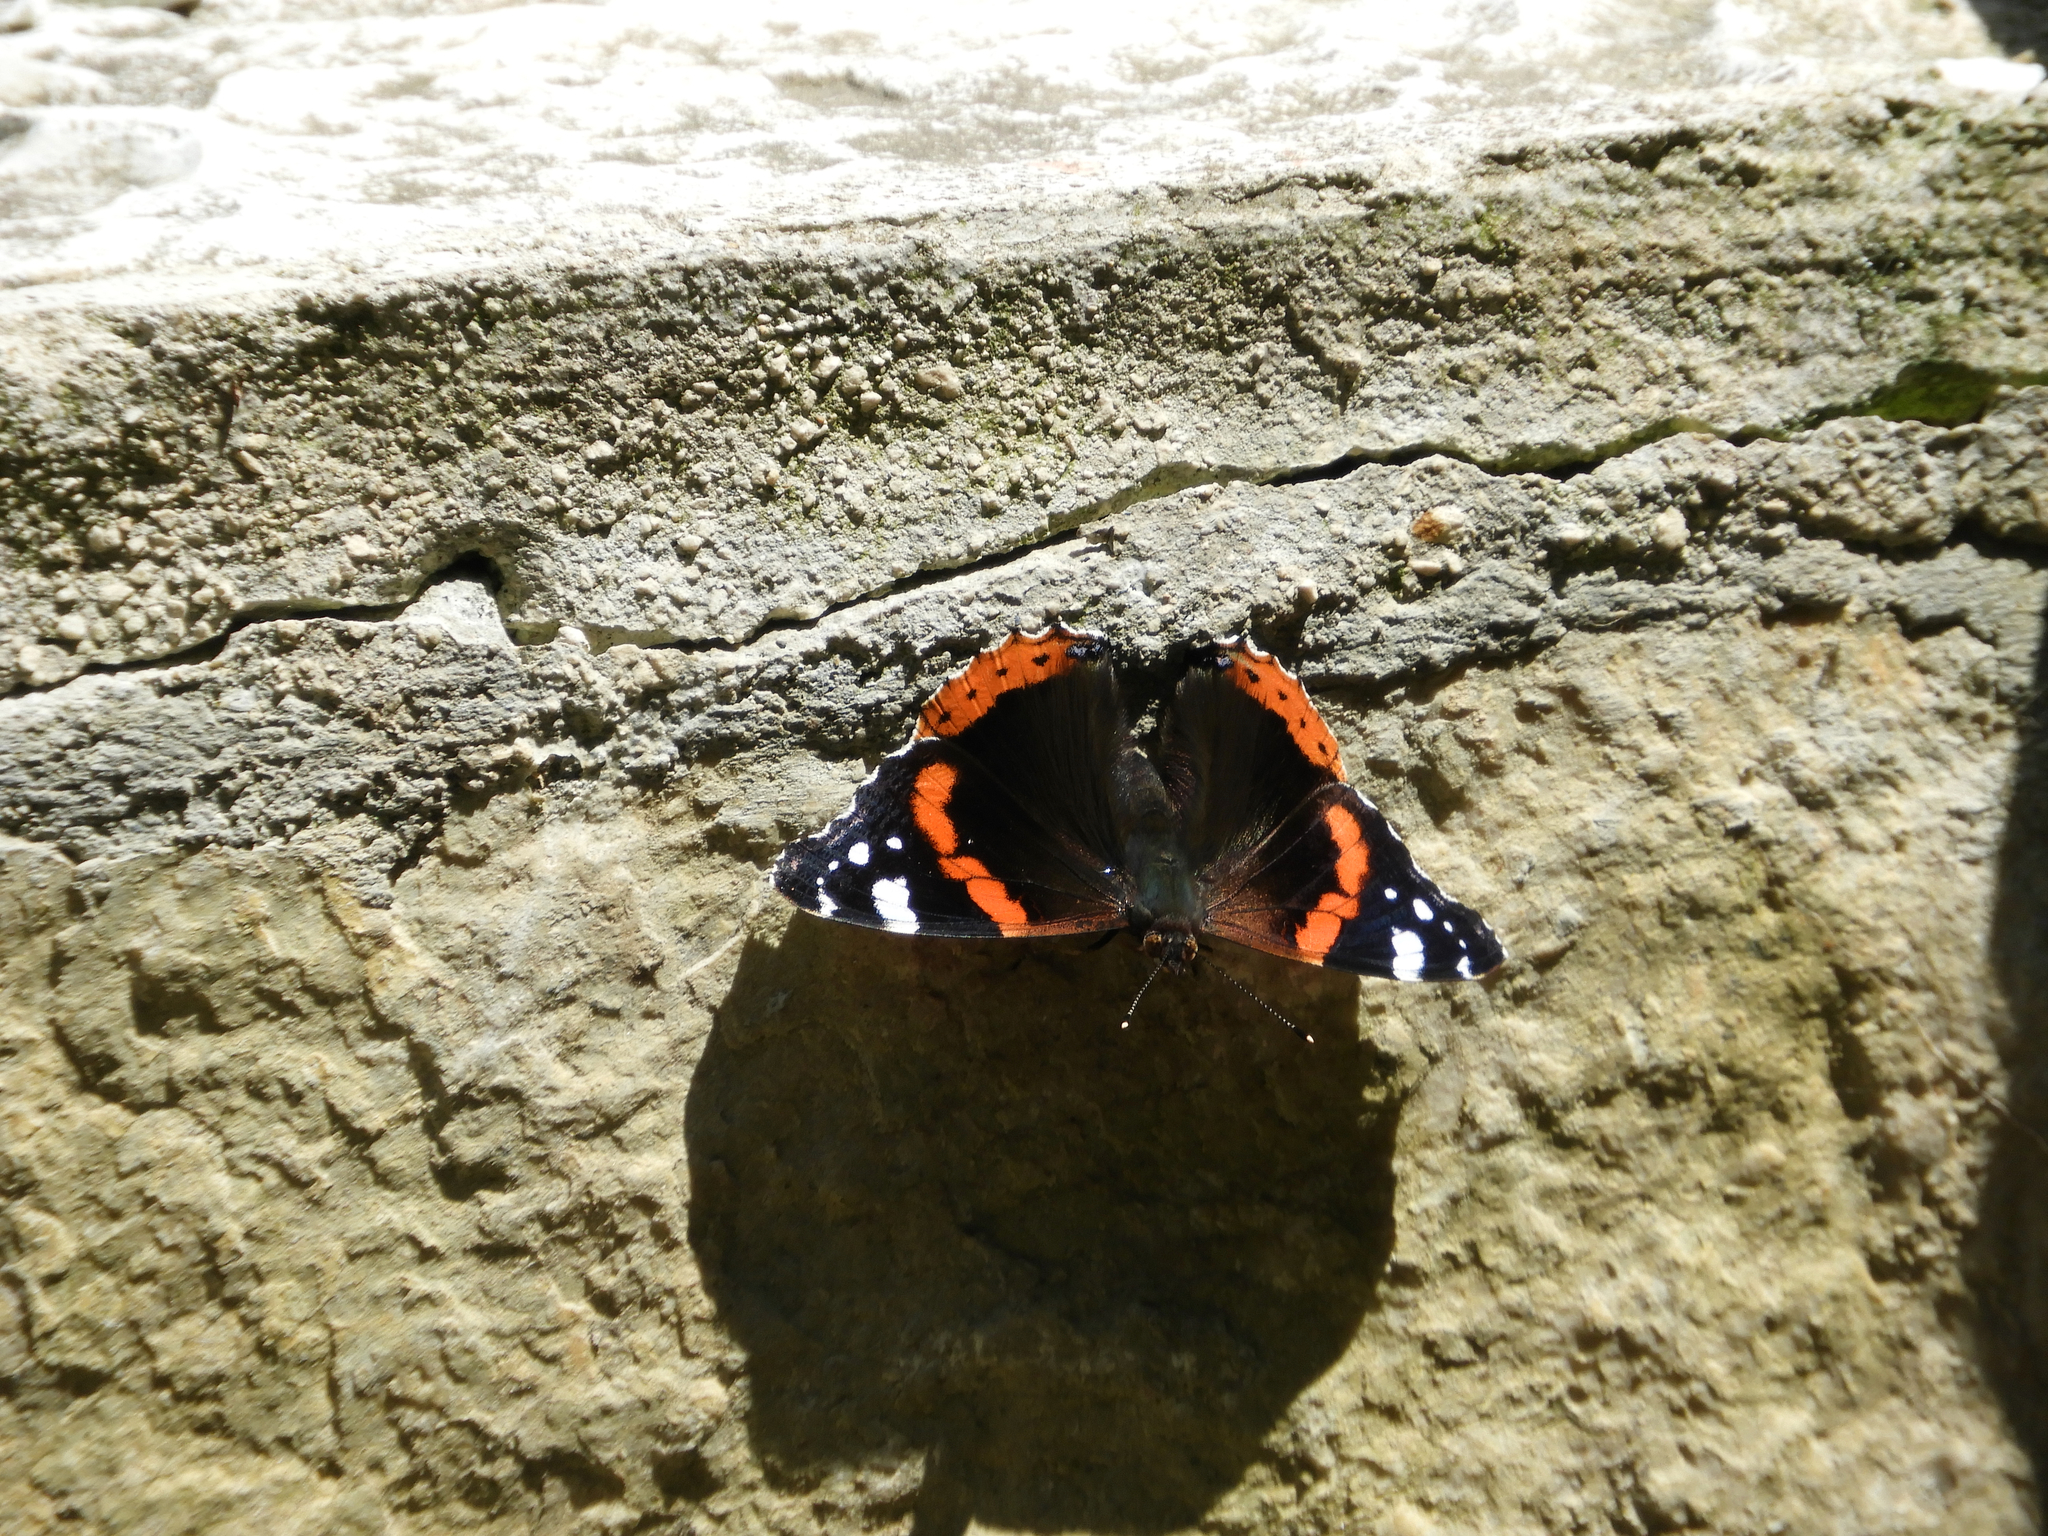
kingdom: Animalia
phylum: Arthropoda
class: Insecta
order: Lepidoptera
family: Nymphalidae
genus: Vanessa
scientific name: Vanessa atalanta
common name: Red admiral
